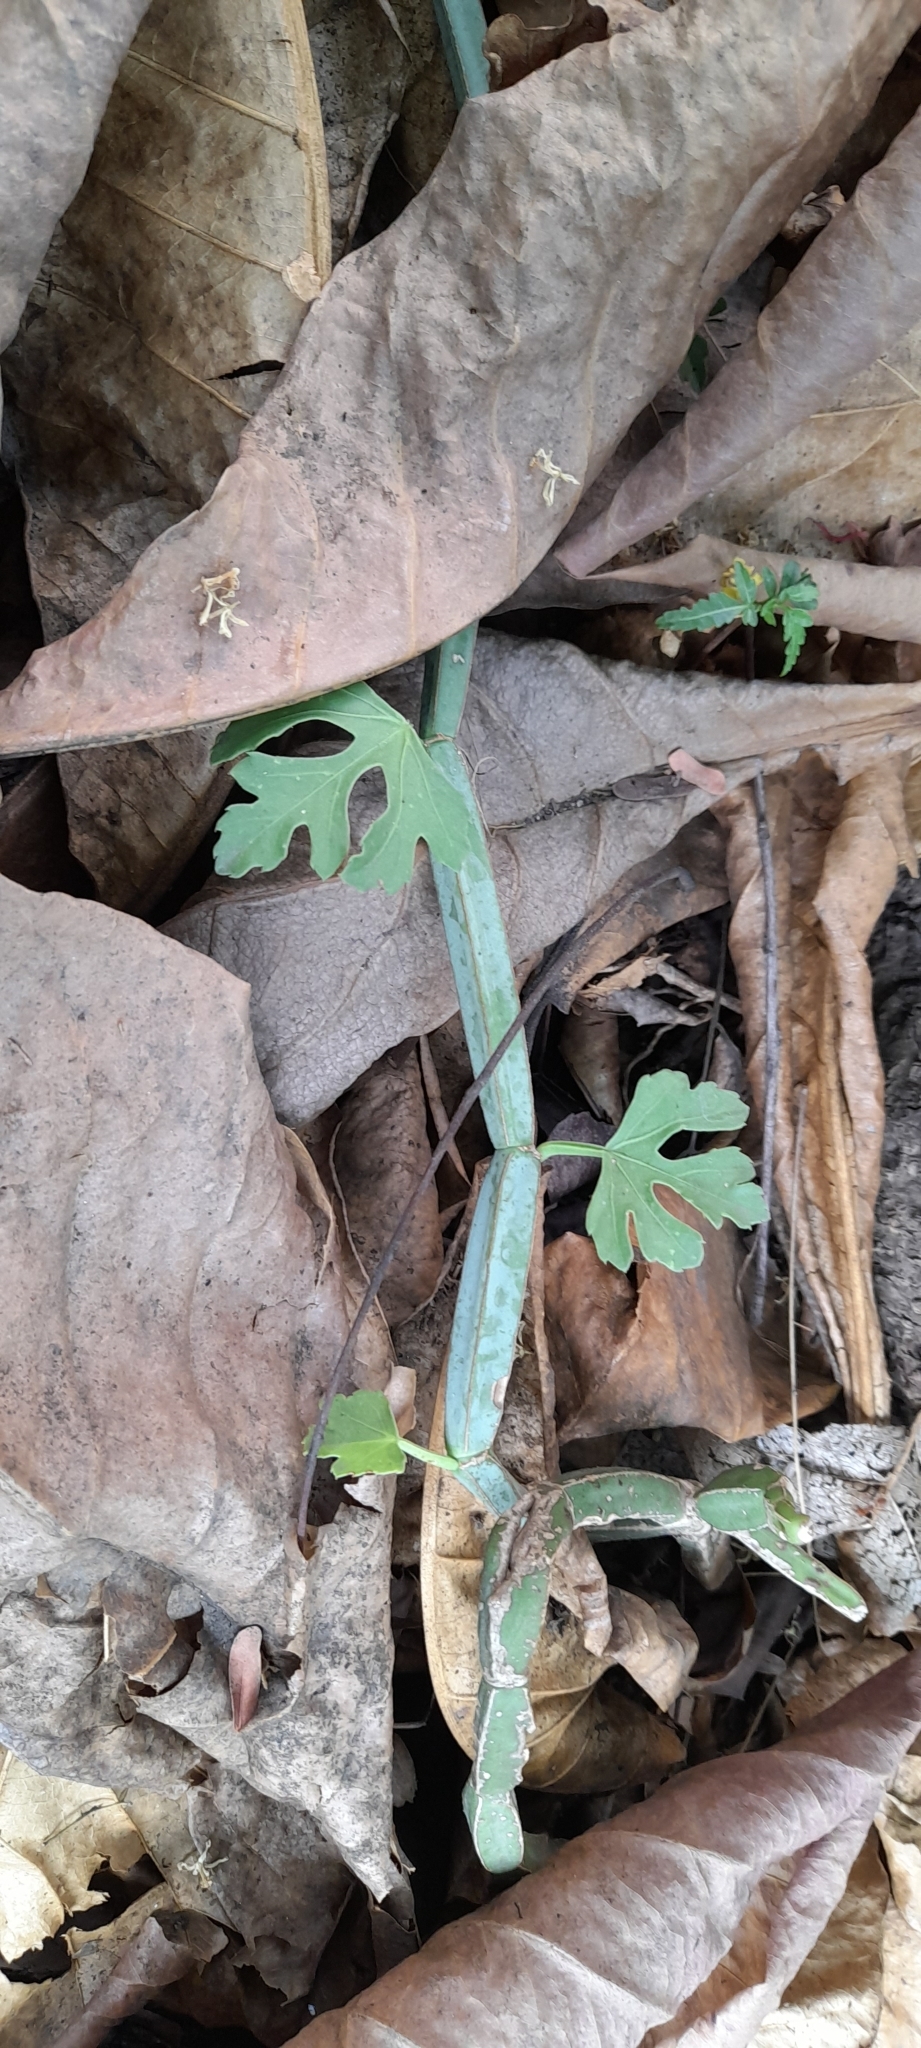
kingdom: Plantae
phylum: Tracheophyta
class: Magnoliopsida
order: Vitales
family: Vitaceae
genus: Cissus
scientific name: Cissus quadrangularis
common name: Veldt-grape
